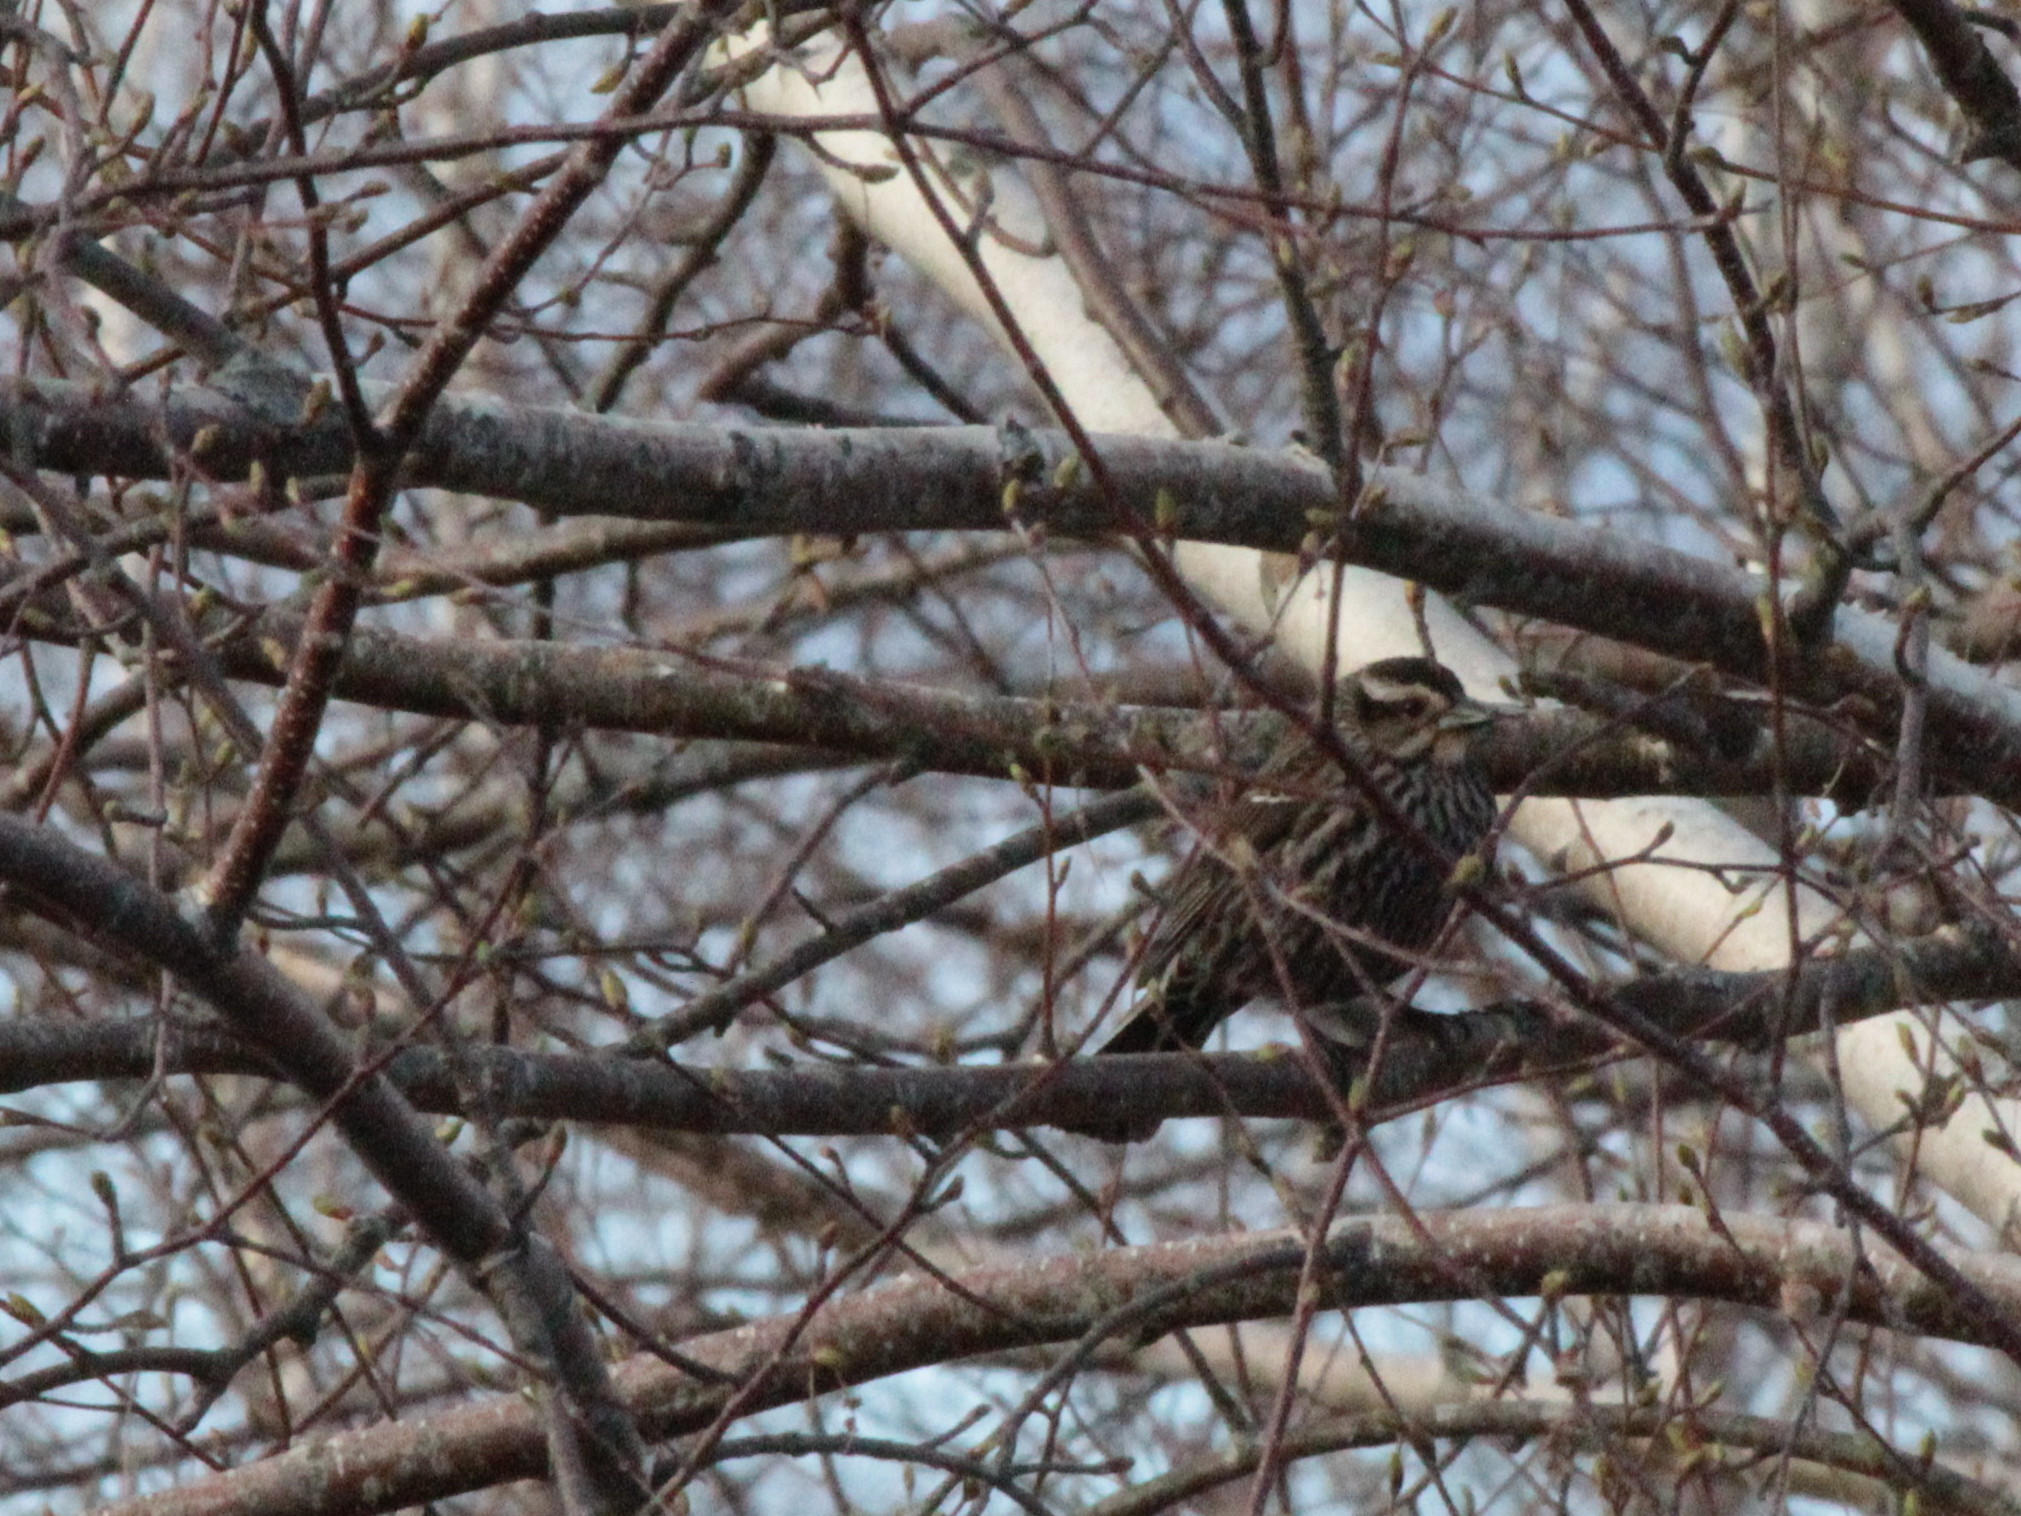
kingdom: Animalia
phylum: Chordata
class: Aves
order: Passeriformes
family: Icteridae
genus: Agelaius
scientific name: Agelaius phoeniceus
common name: Red-winged blackbird
